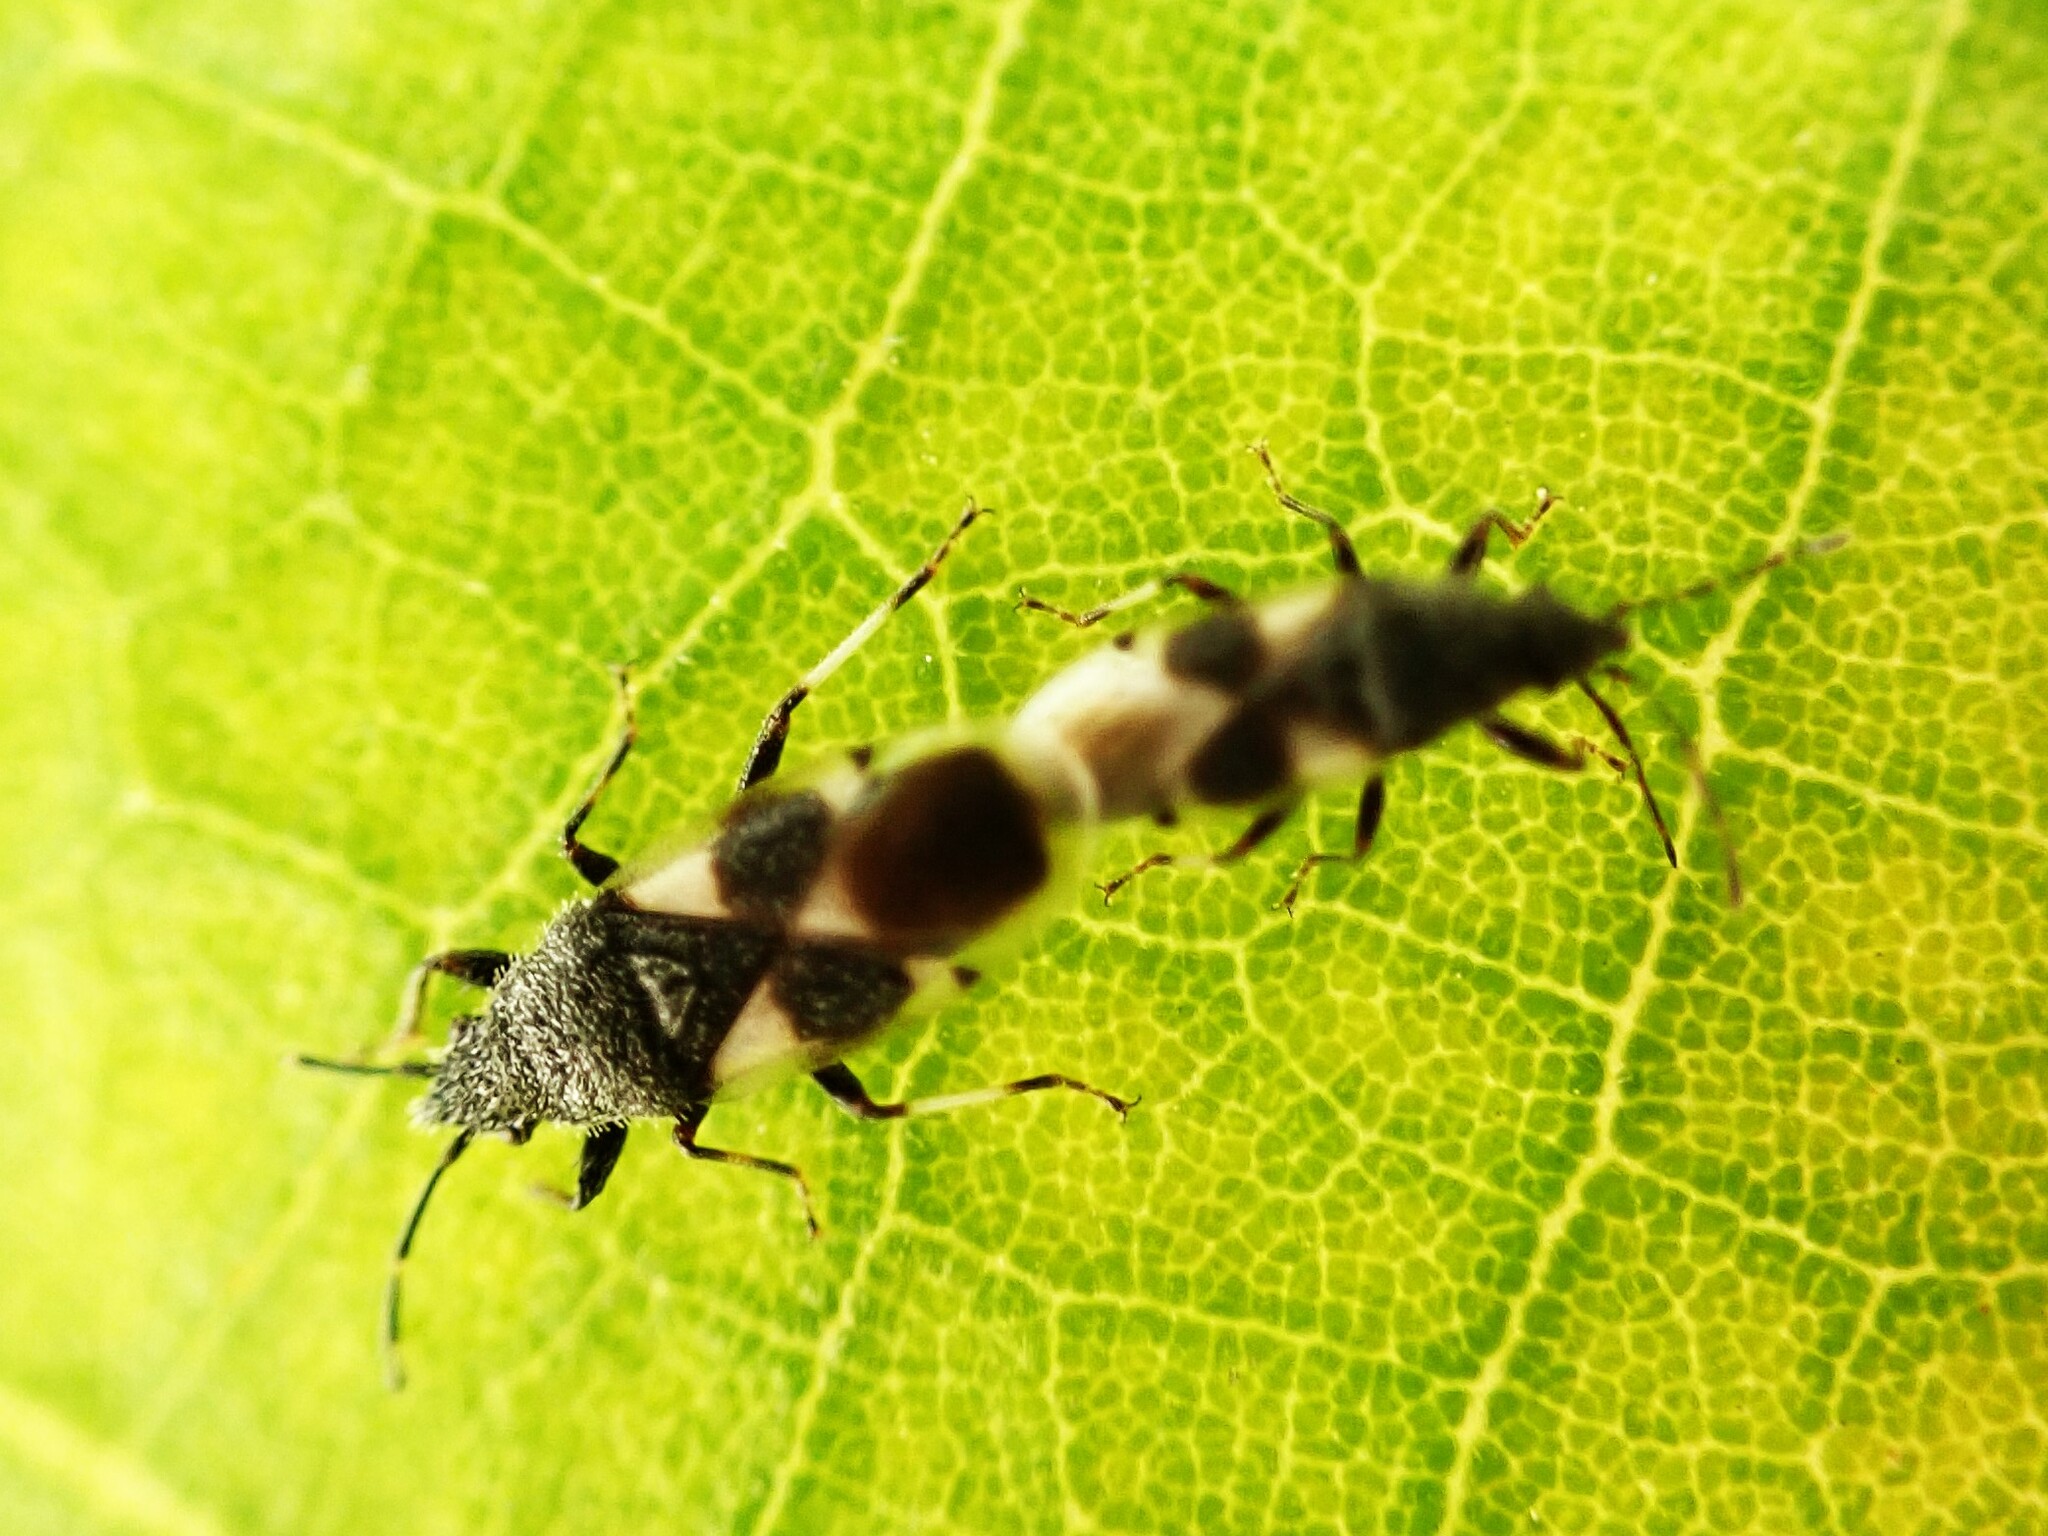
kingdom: Animalia
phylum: Arthropoda
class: Insecta
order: Hemiptera
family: Oxycarenidae
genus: Oxycarenus
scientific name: Oxycarenus luctuosus
